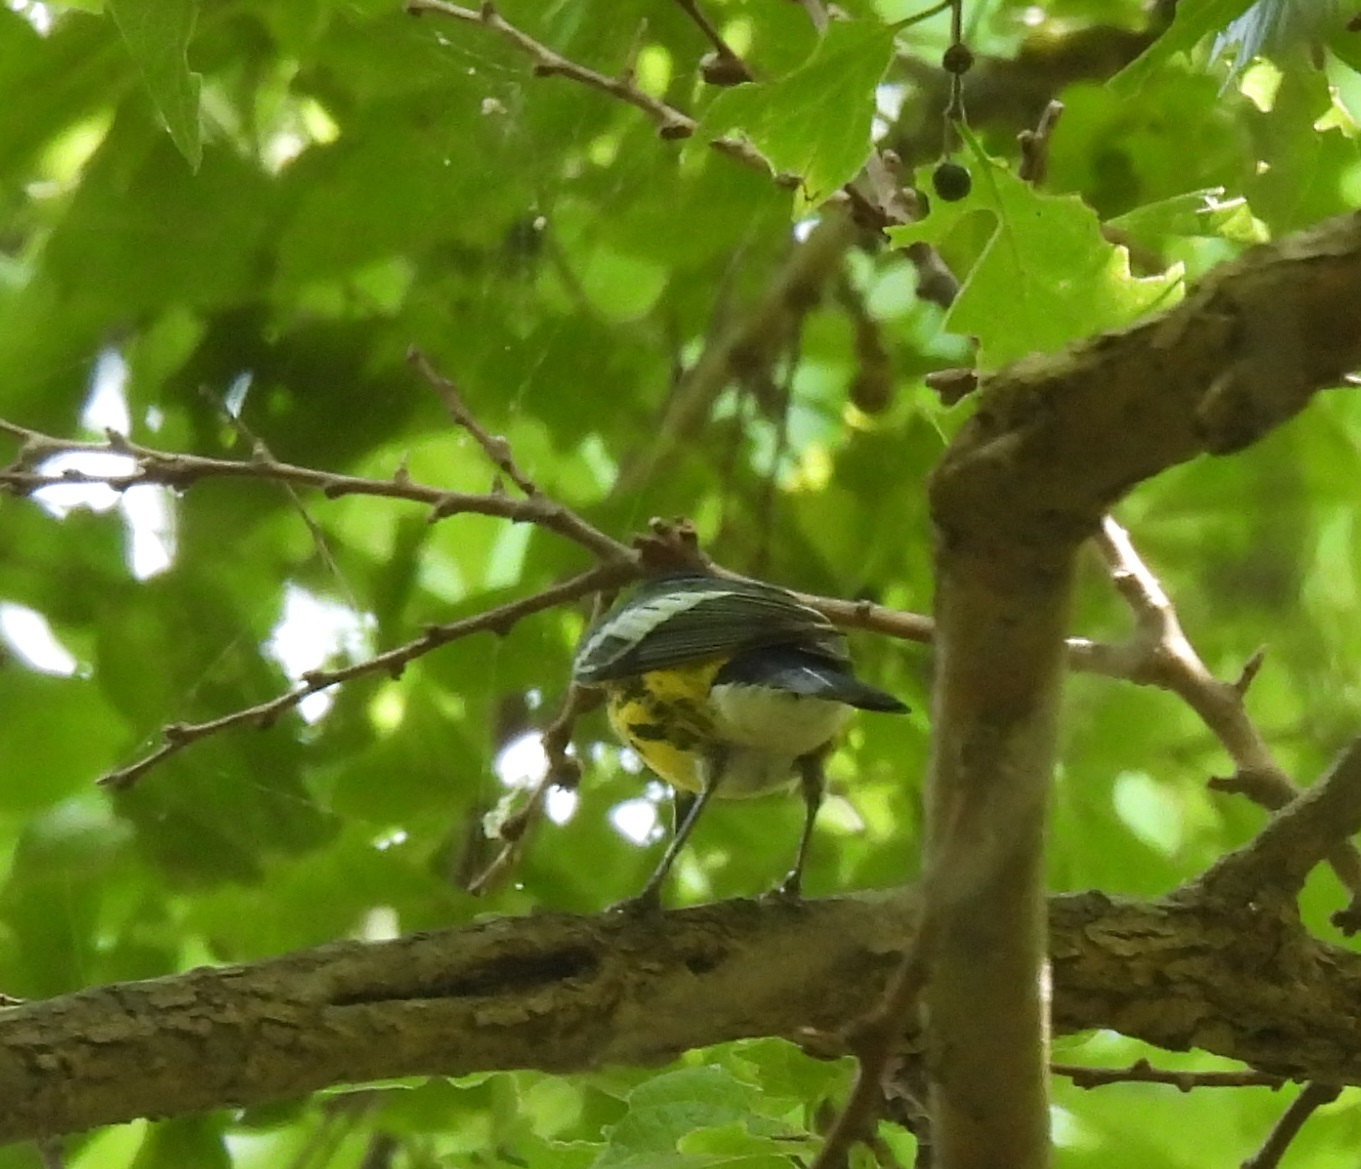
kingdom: Animalia
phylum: Chordata
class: Aves
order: Passeriformes
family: Parulidae
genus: Setophaga
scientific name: Setophaga magnolia
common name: Magnolia warbler
